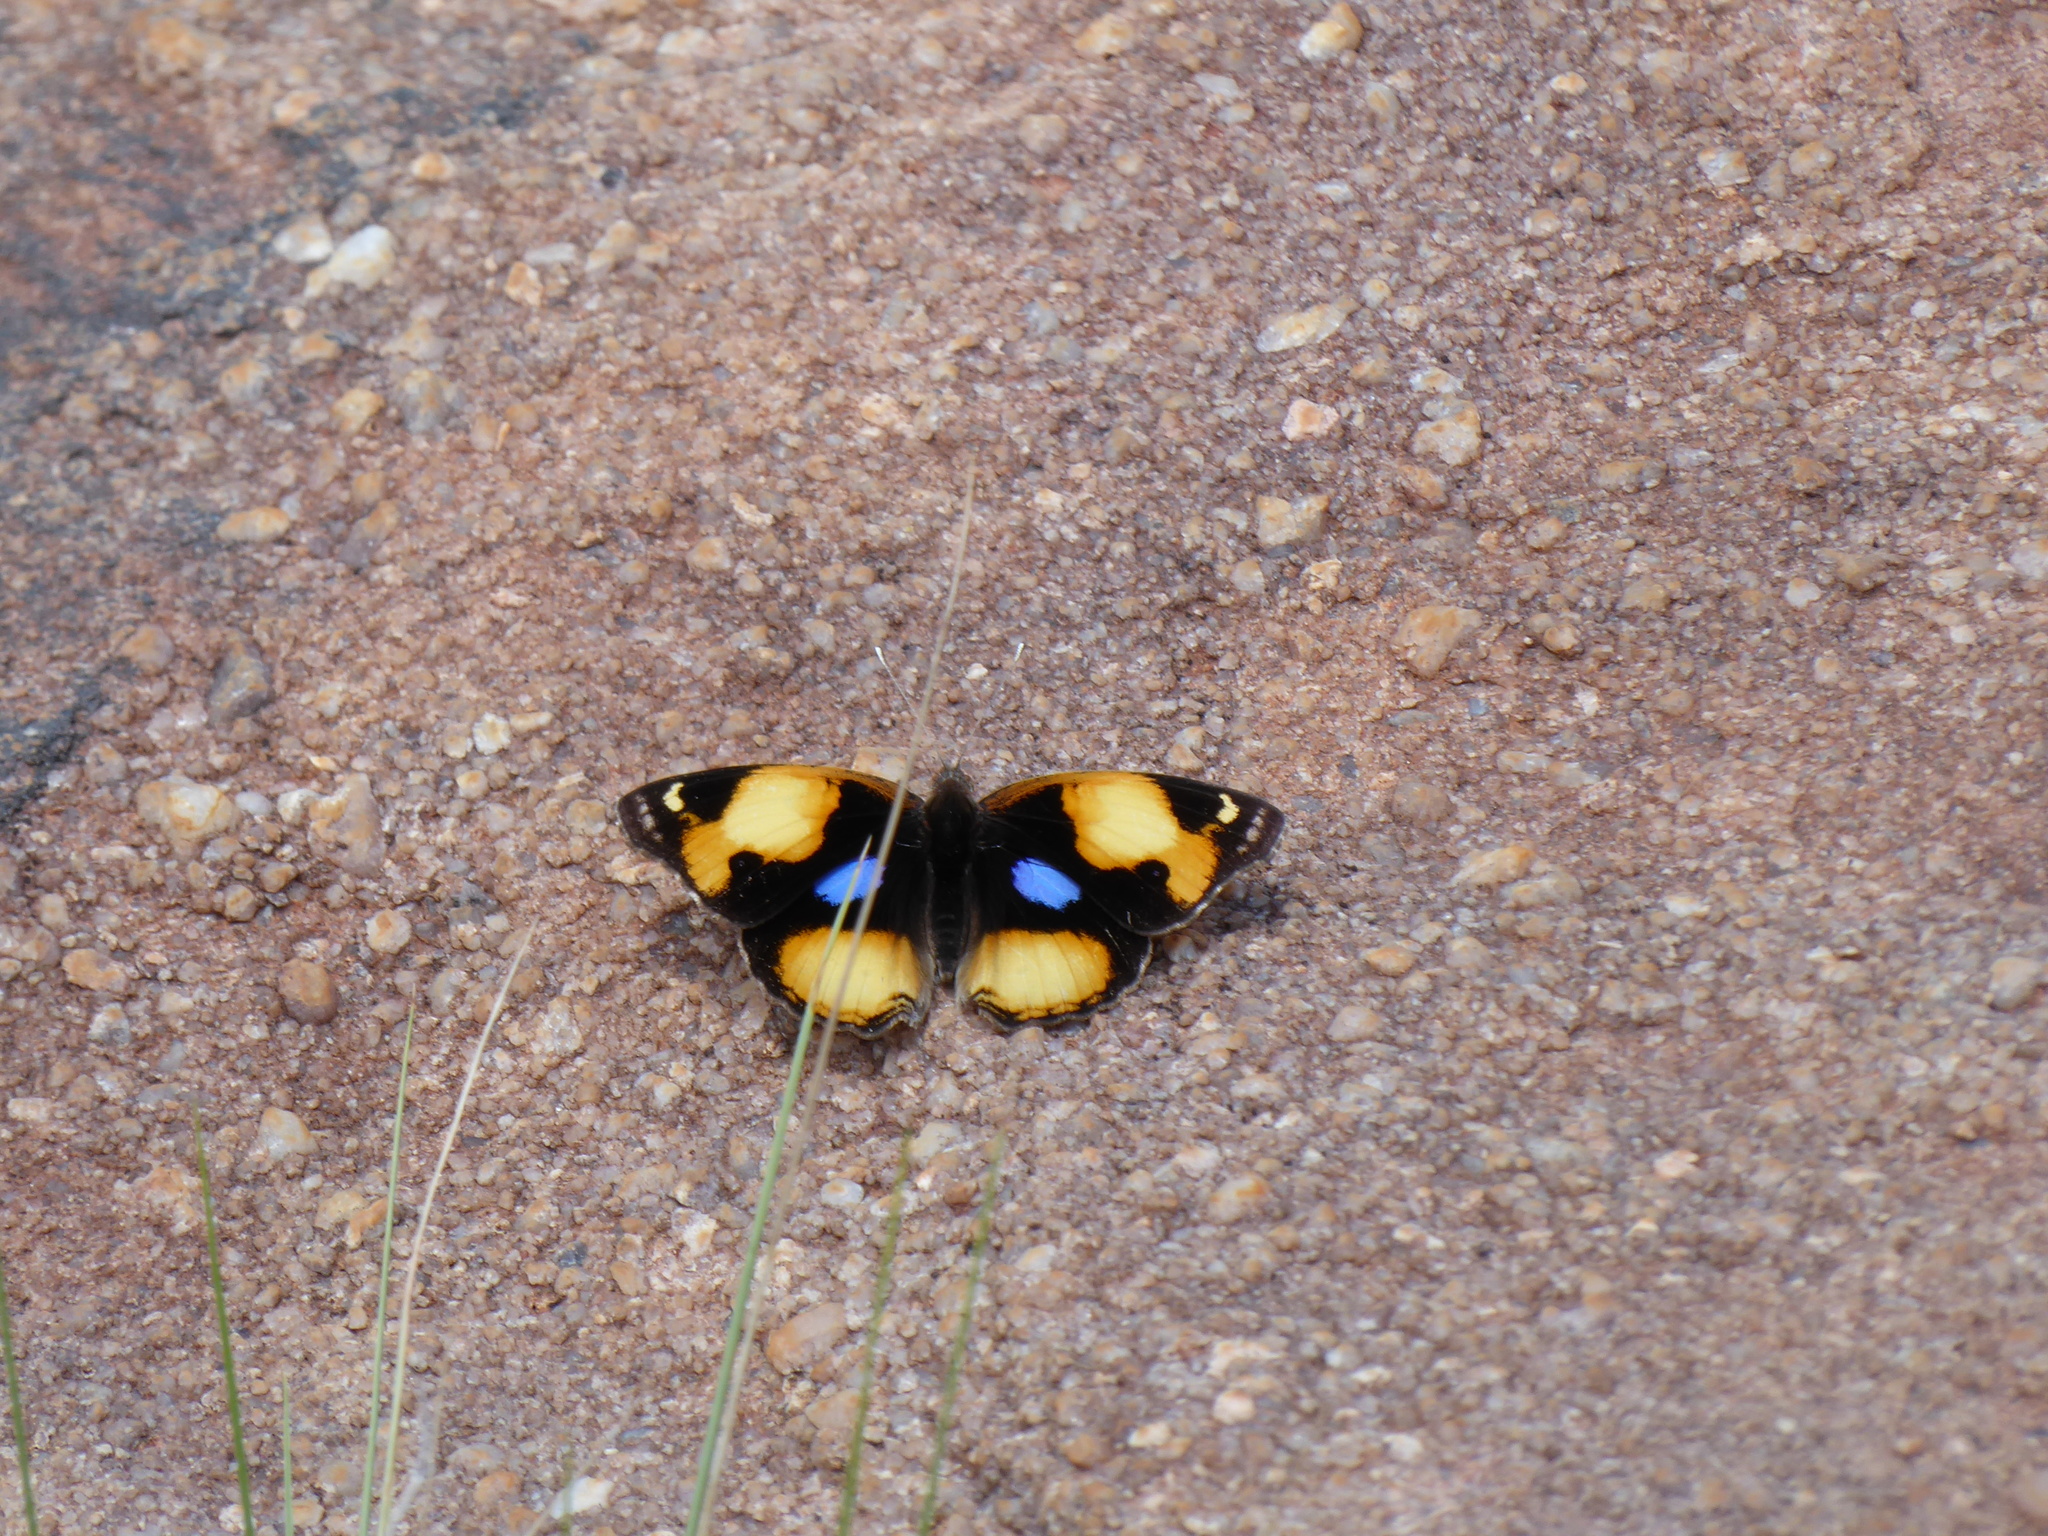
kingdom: Animalia
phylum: Arthropoda
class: Insecta
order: Lepidoptera
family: Nymphalidae
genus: Junonia
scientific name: Junonia hierta
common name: Yellow pansy
